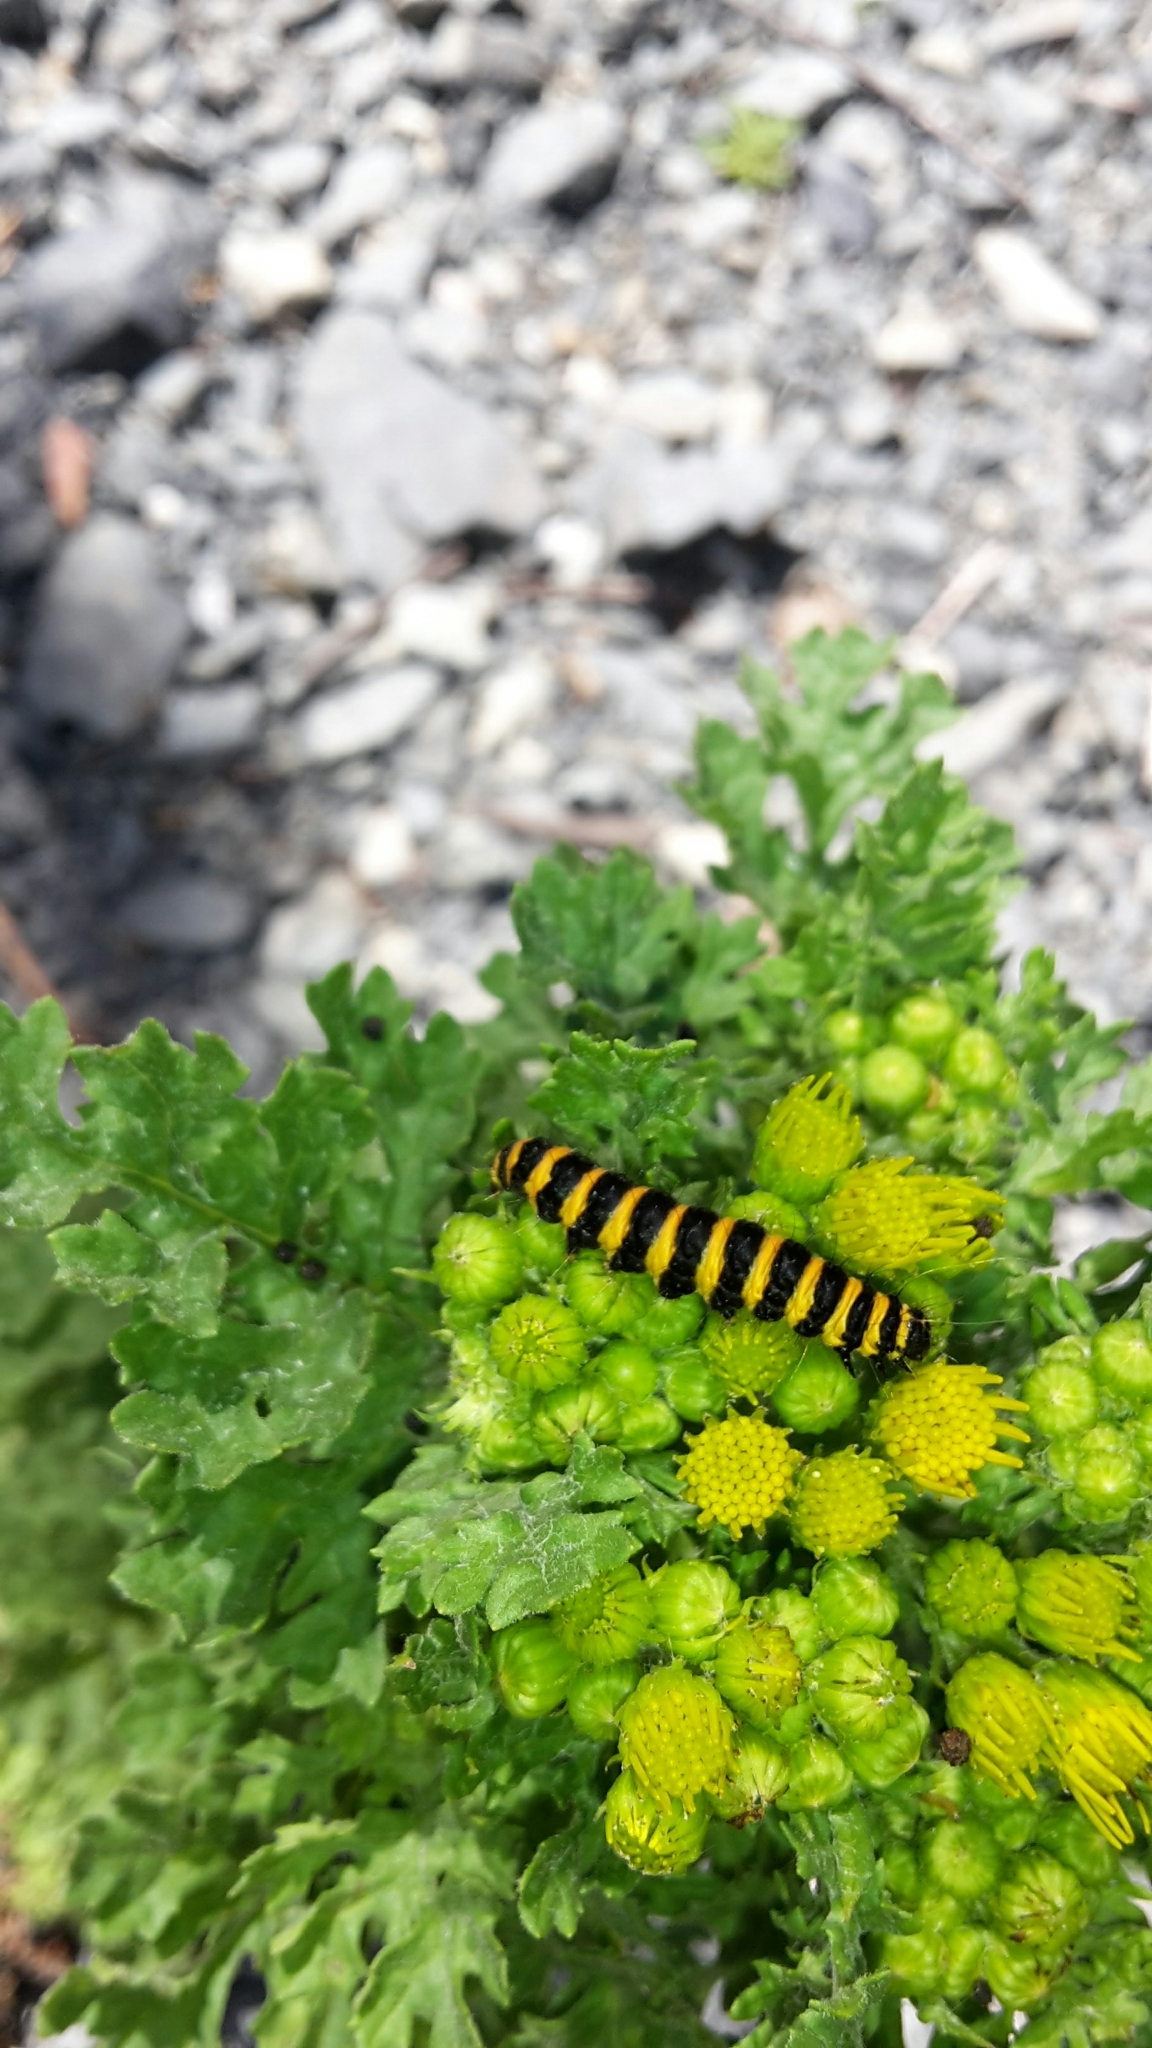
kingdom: Animalia
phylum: Arthropoda
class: Insecta
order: Lepidoptera
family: Erebidae
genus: Tyria
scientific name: Tyria jacobaeae
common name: Cinnabar
